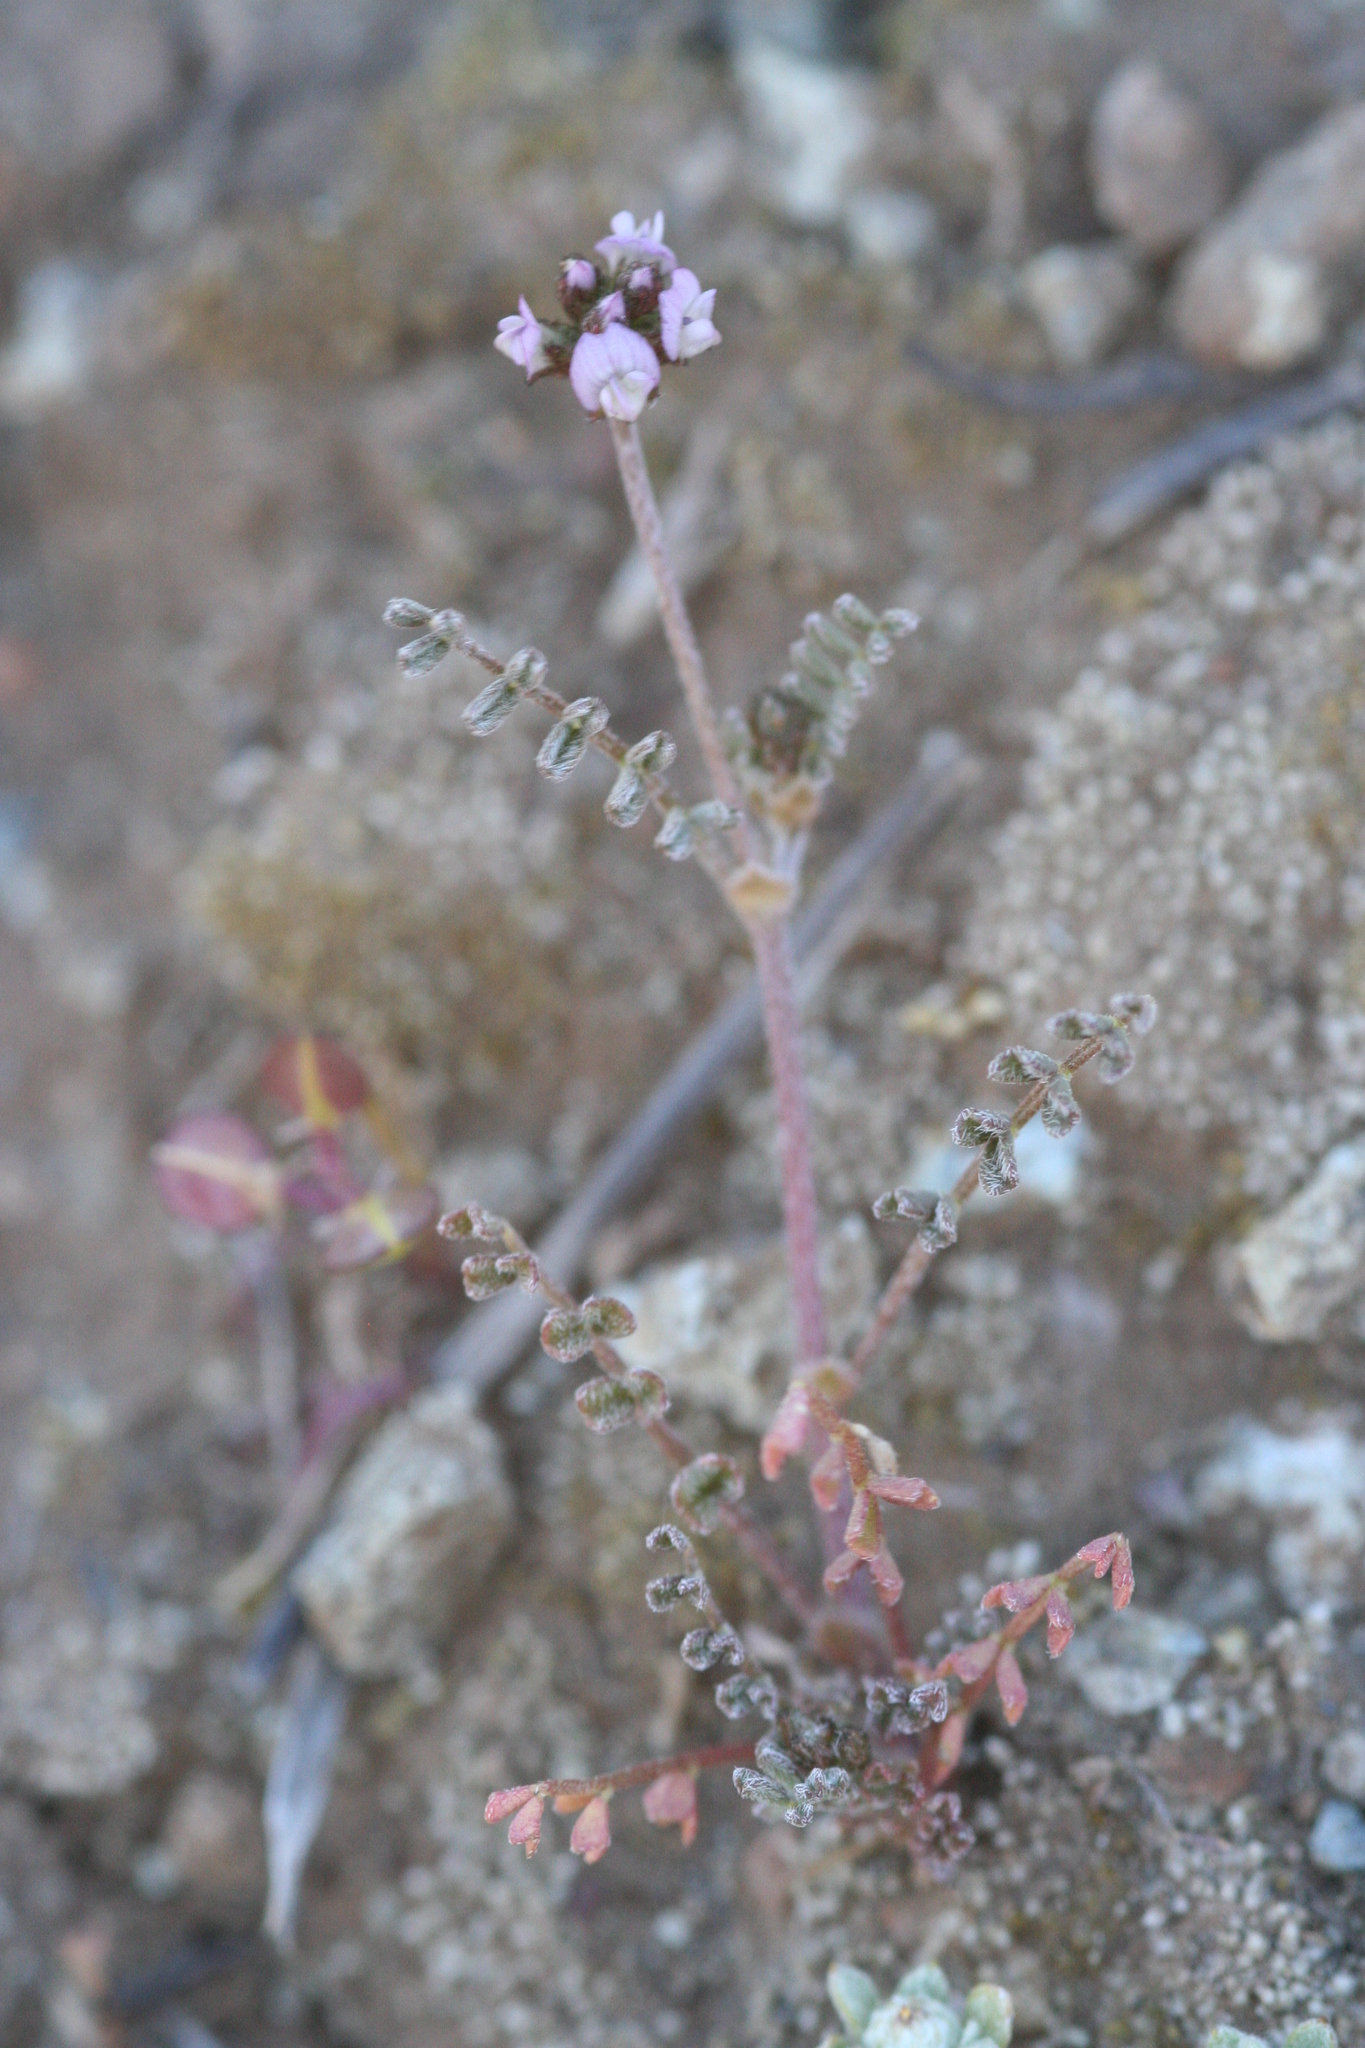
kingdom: Plantae
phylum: Tracheophyta
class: Magnoliopsida
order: Fabales
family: Fabaceae
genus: Astragalus
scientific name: Astragalus gambelianus
